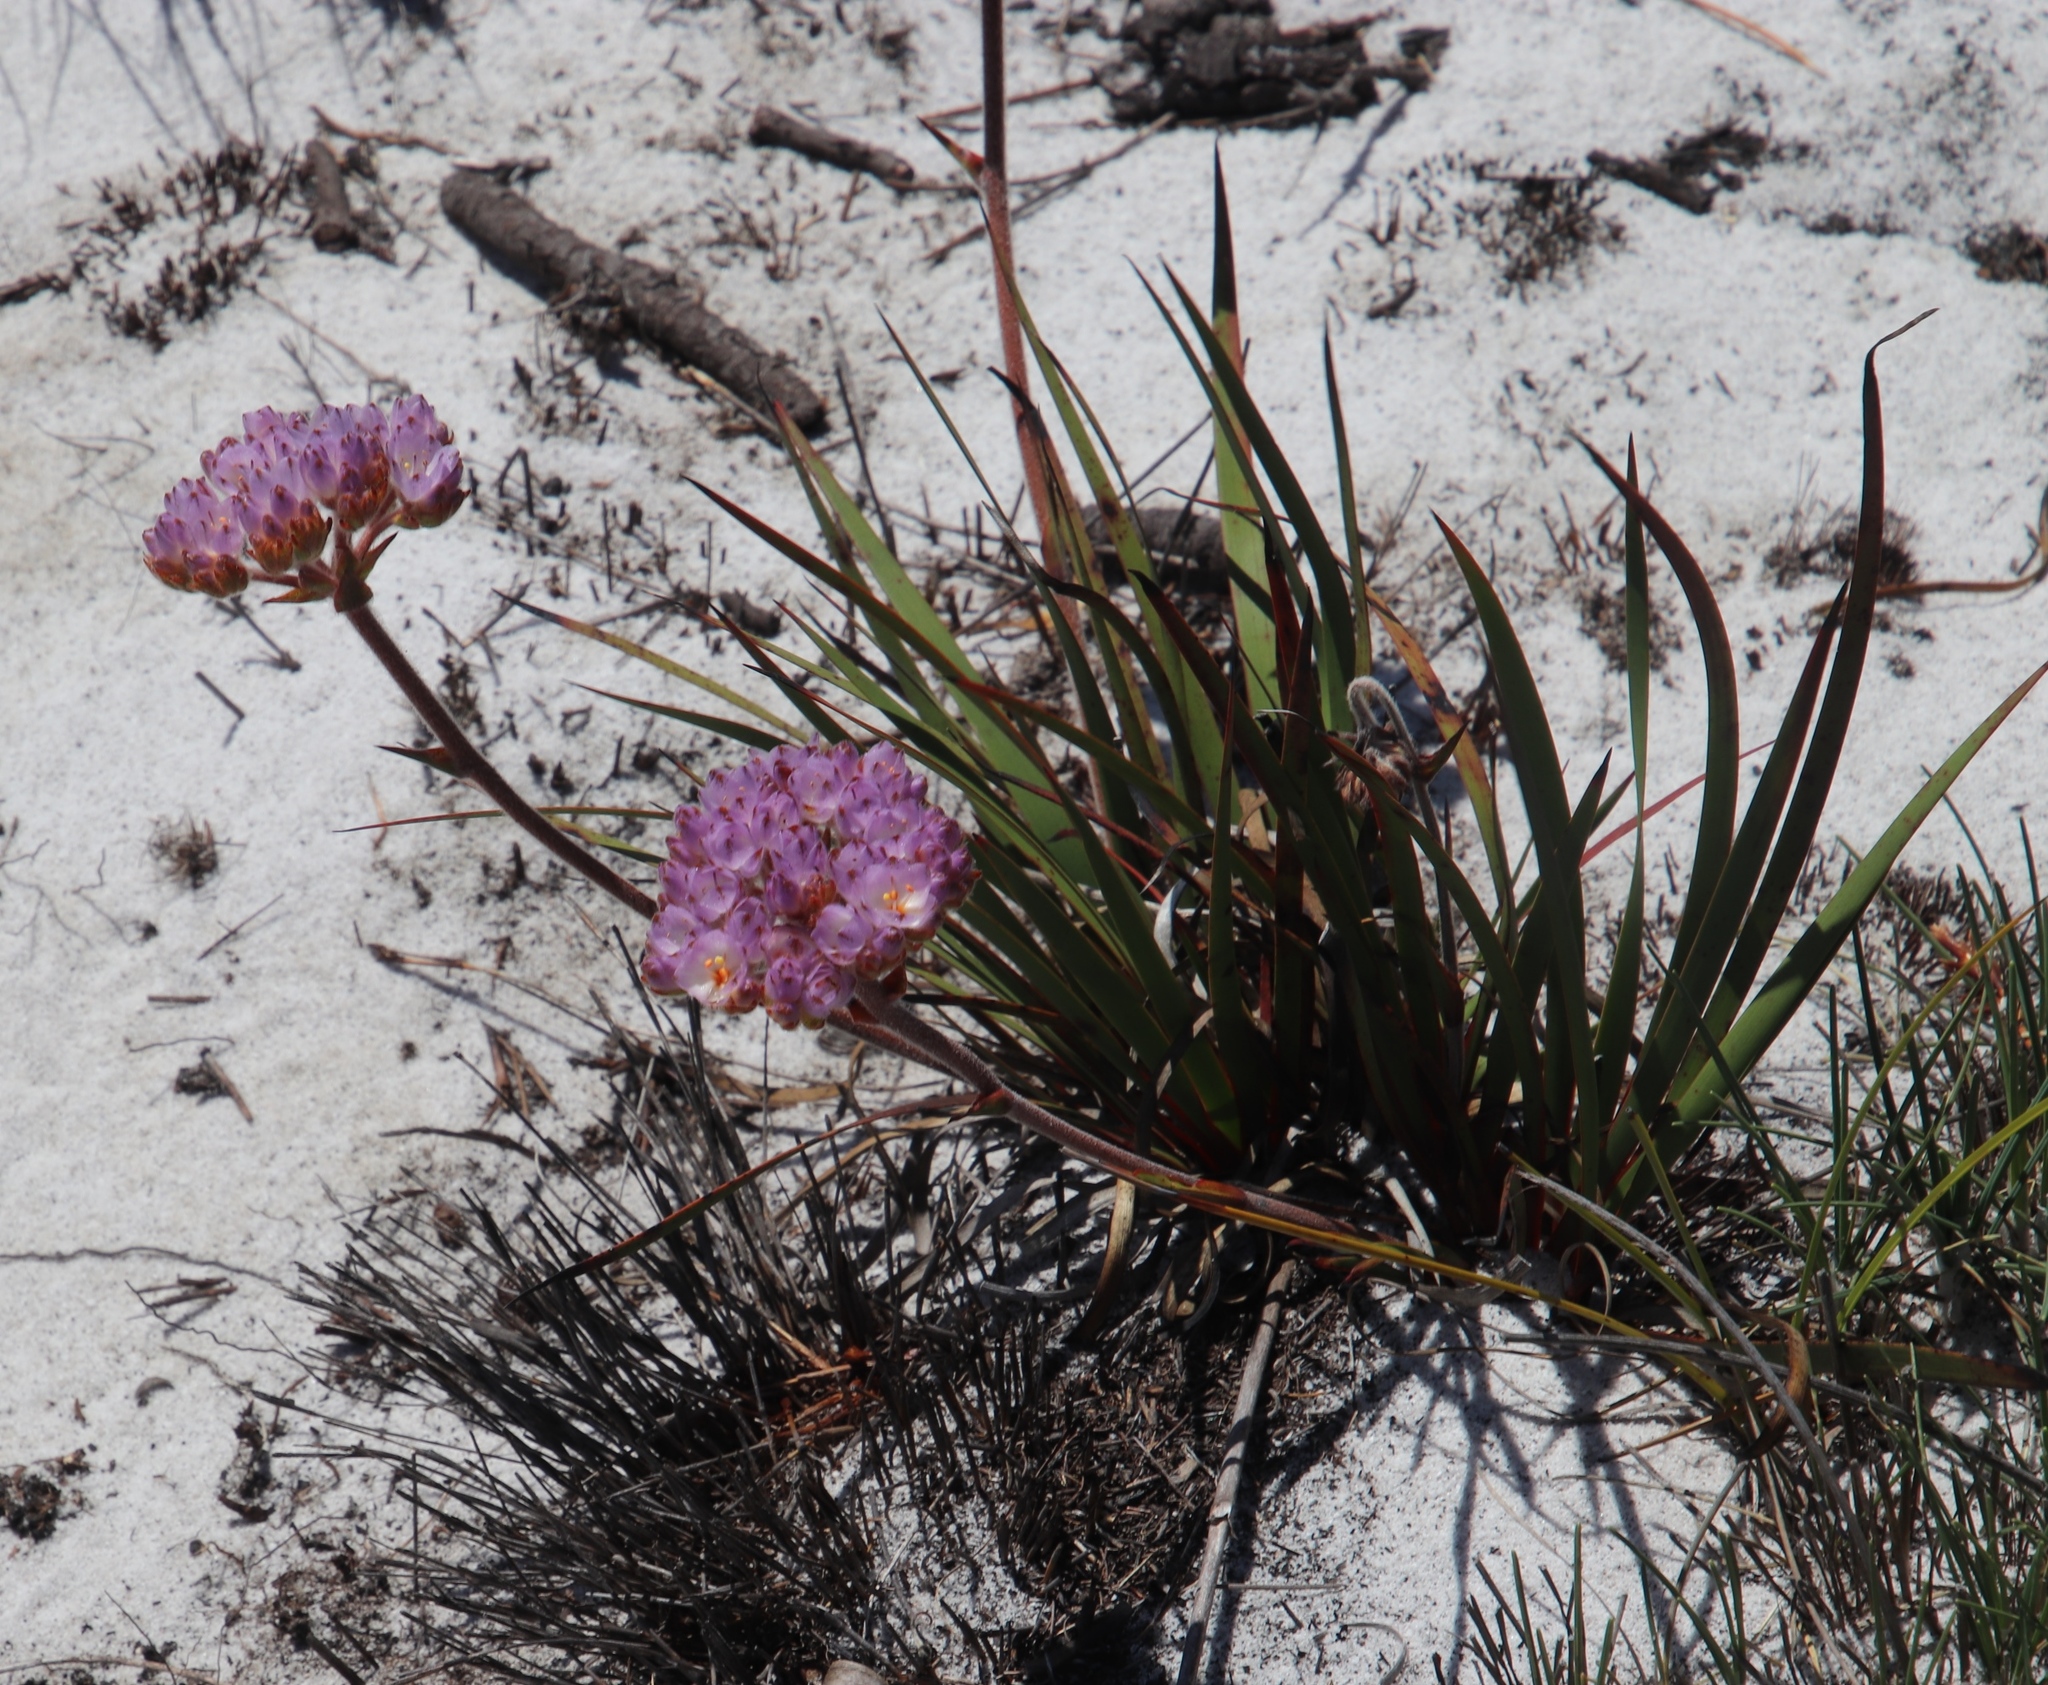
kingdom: Plantae
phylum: Tracheophyta
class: Liliopsida
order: Commelinales
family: Haemodoraceae
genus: Dilatris
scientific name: Dilatris pillansii
